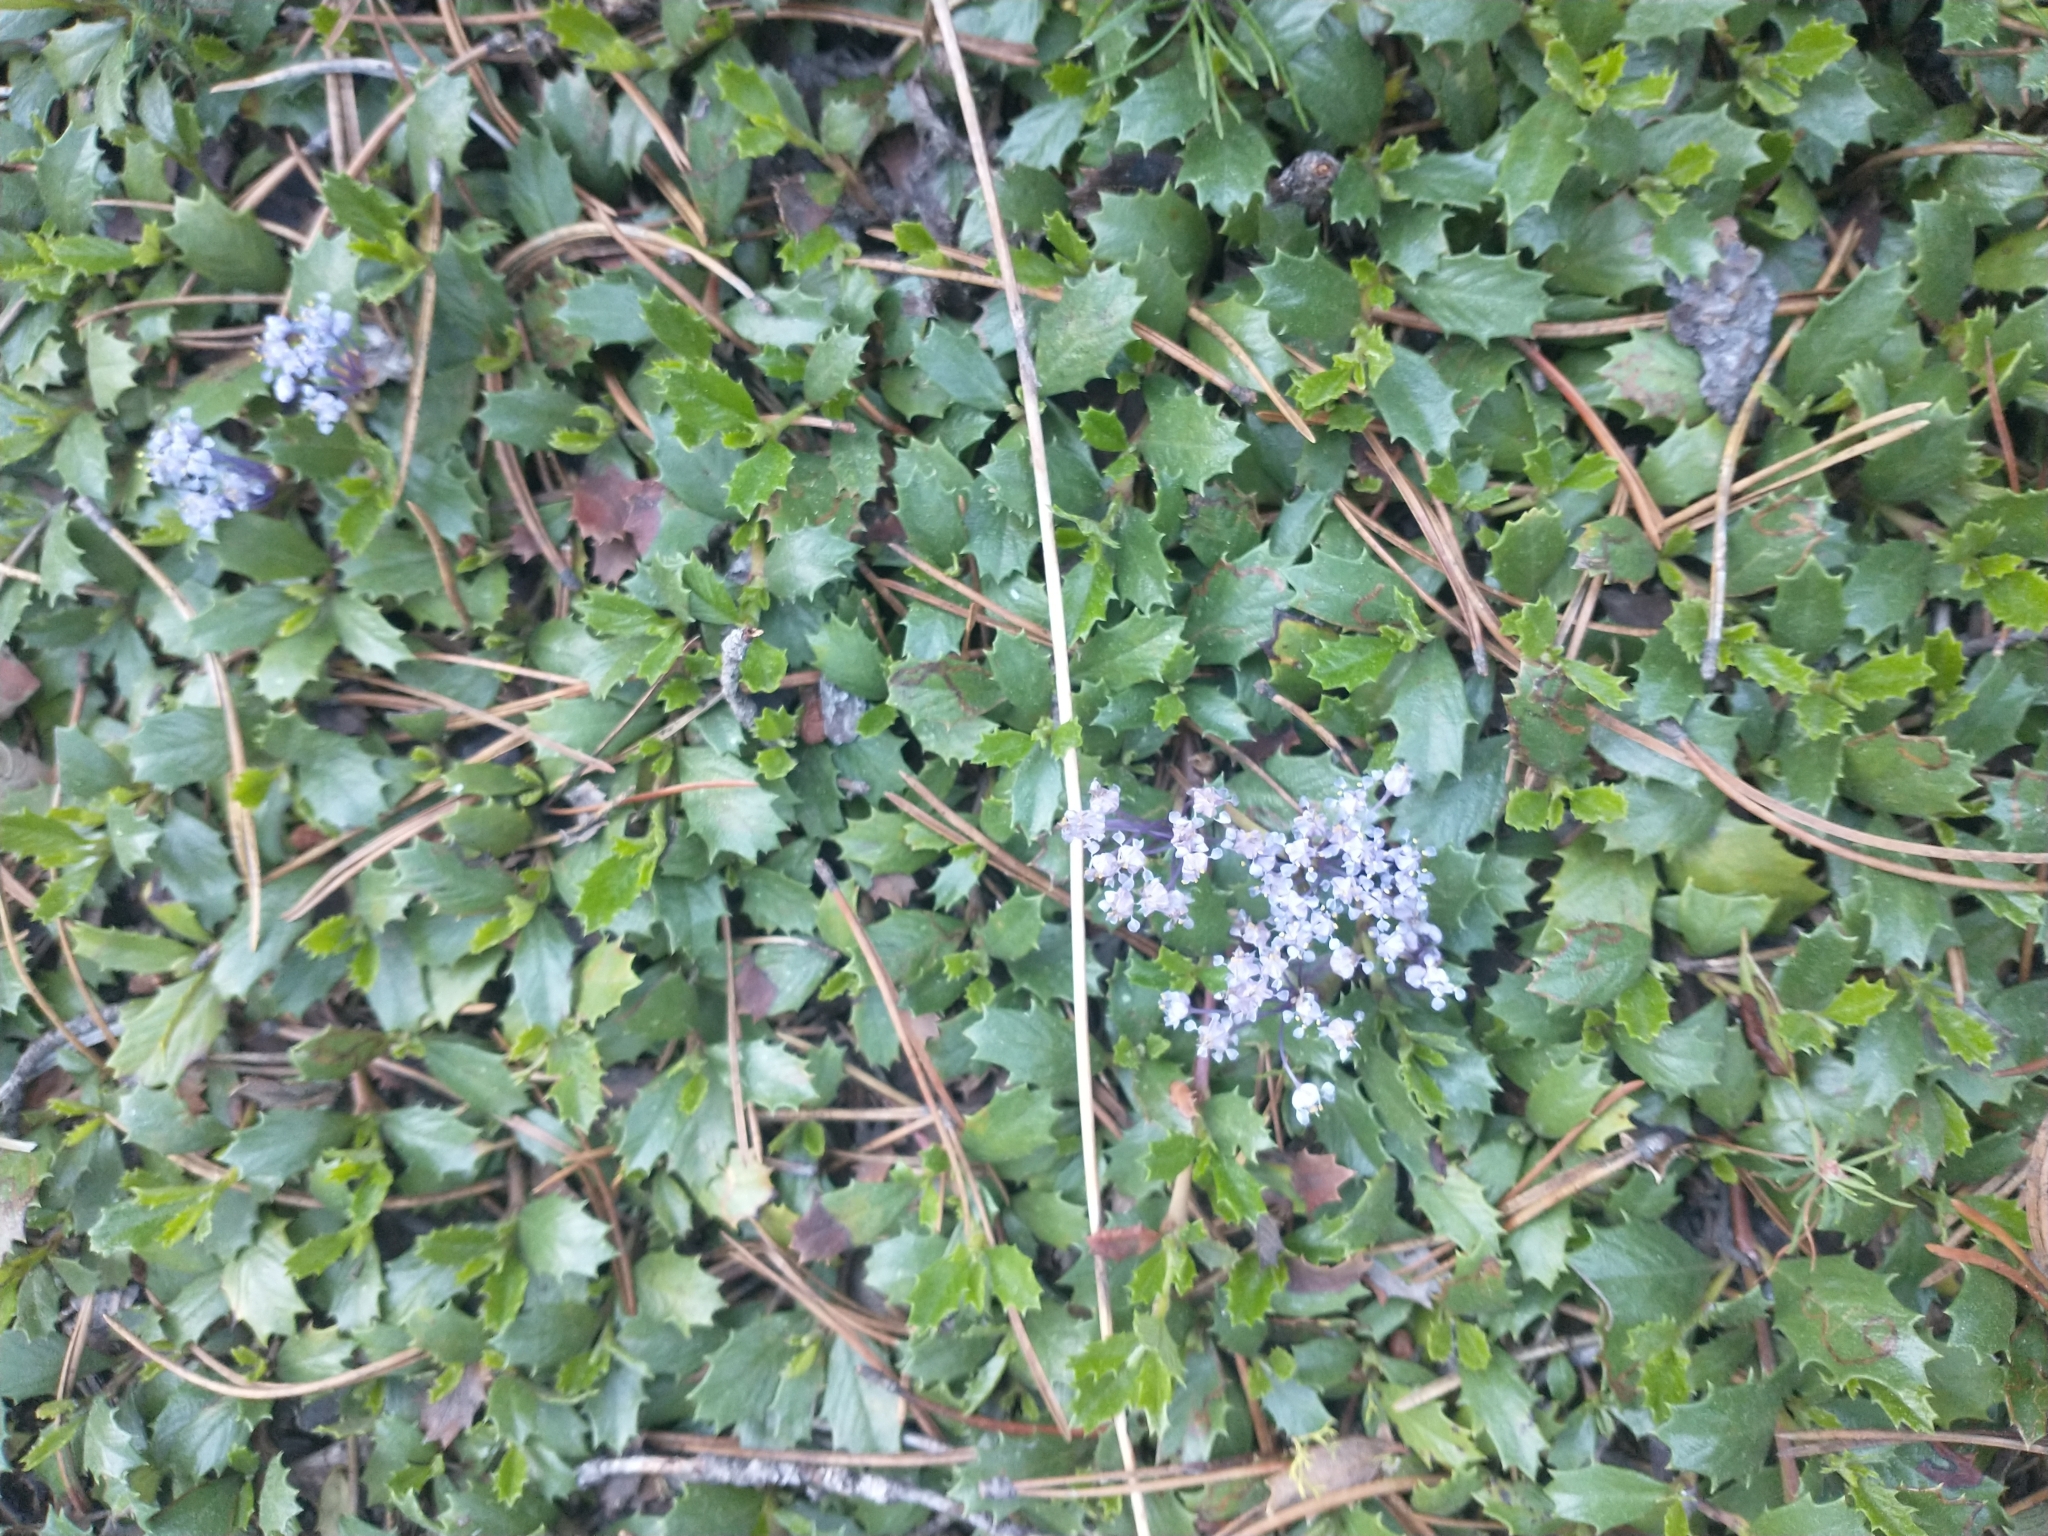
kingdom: Plantae
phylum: Tracheophyta
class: Magnoliopsida
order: Rosales
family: Rhamnaceae
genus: Ceanothus
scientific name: Ceanothus prostratus
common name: Mahala-mat
